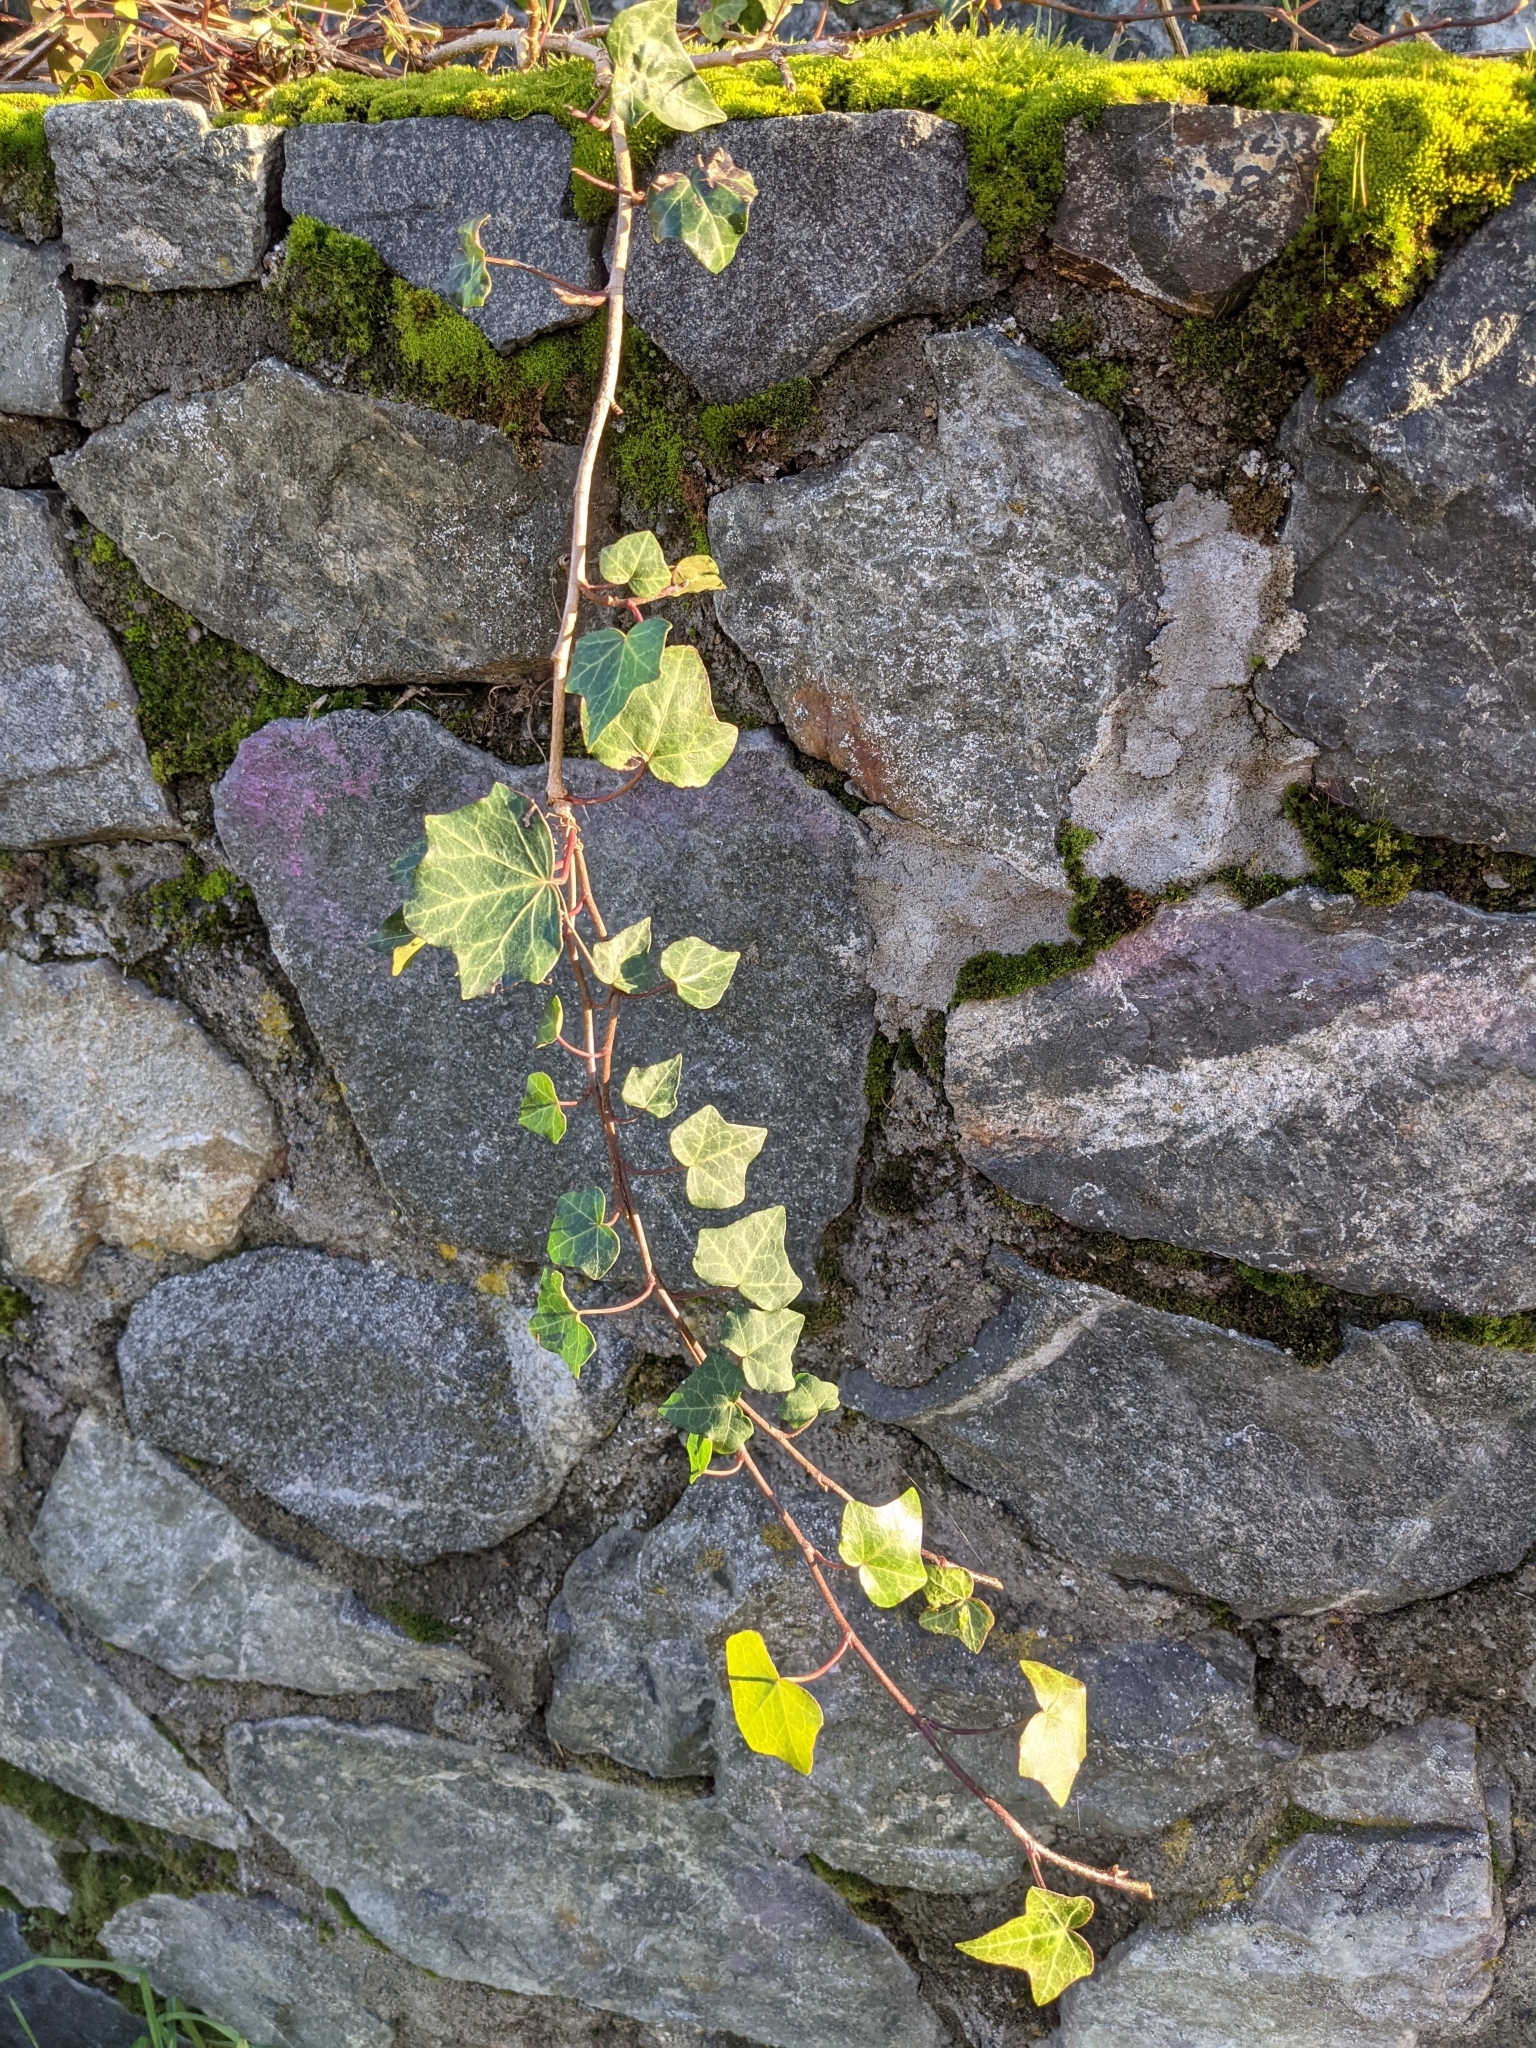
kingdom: Plantae
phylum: Tracheophyta
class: Magnoliopsida
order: Apiales
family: Araliaceae
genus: Hedera
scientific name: Hedera helix
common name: Ivy
